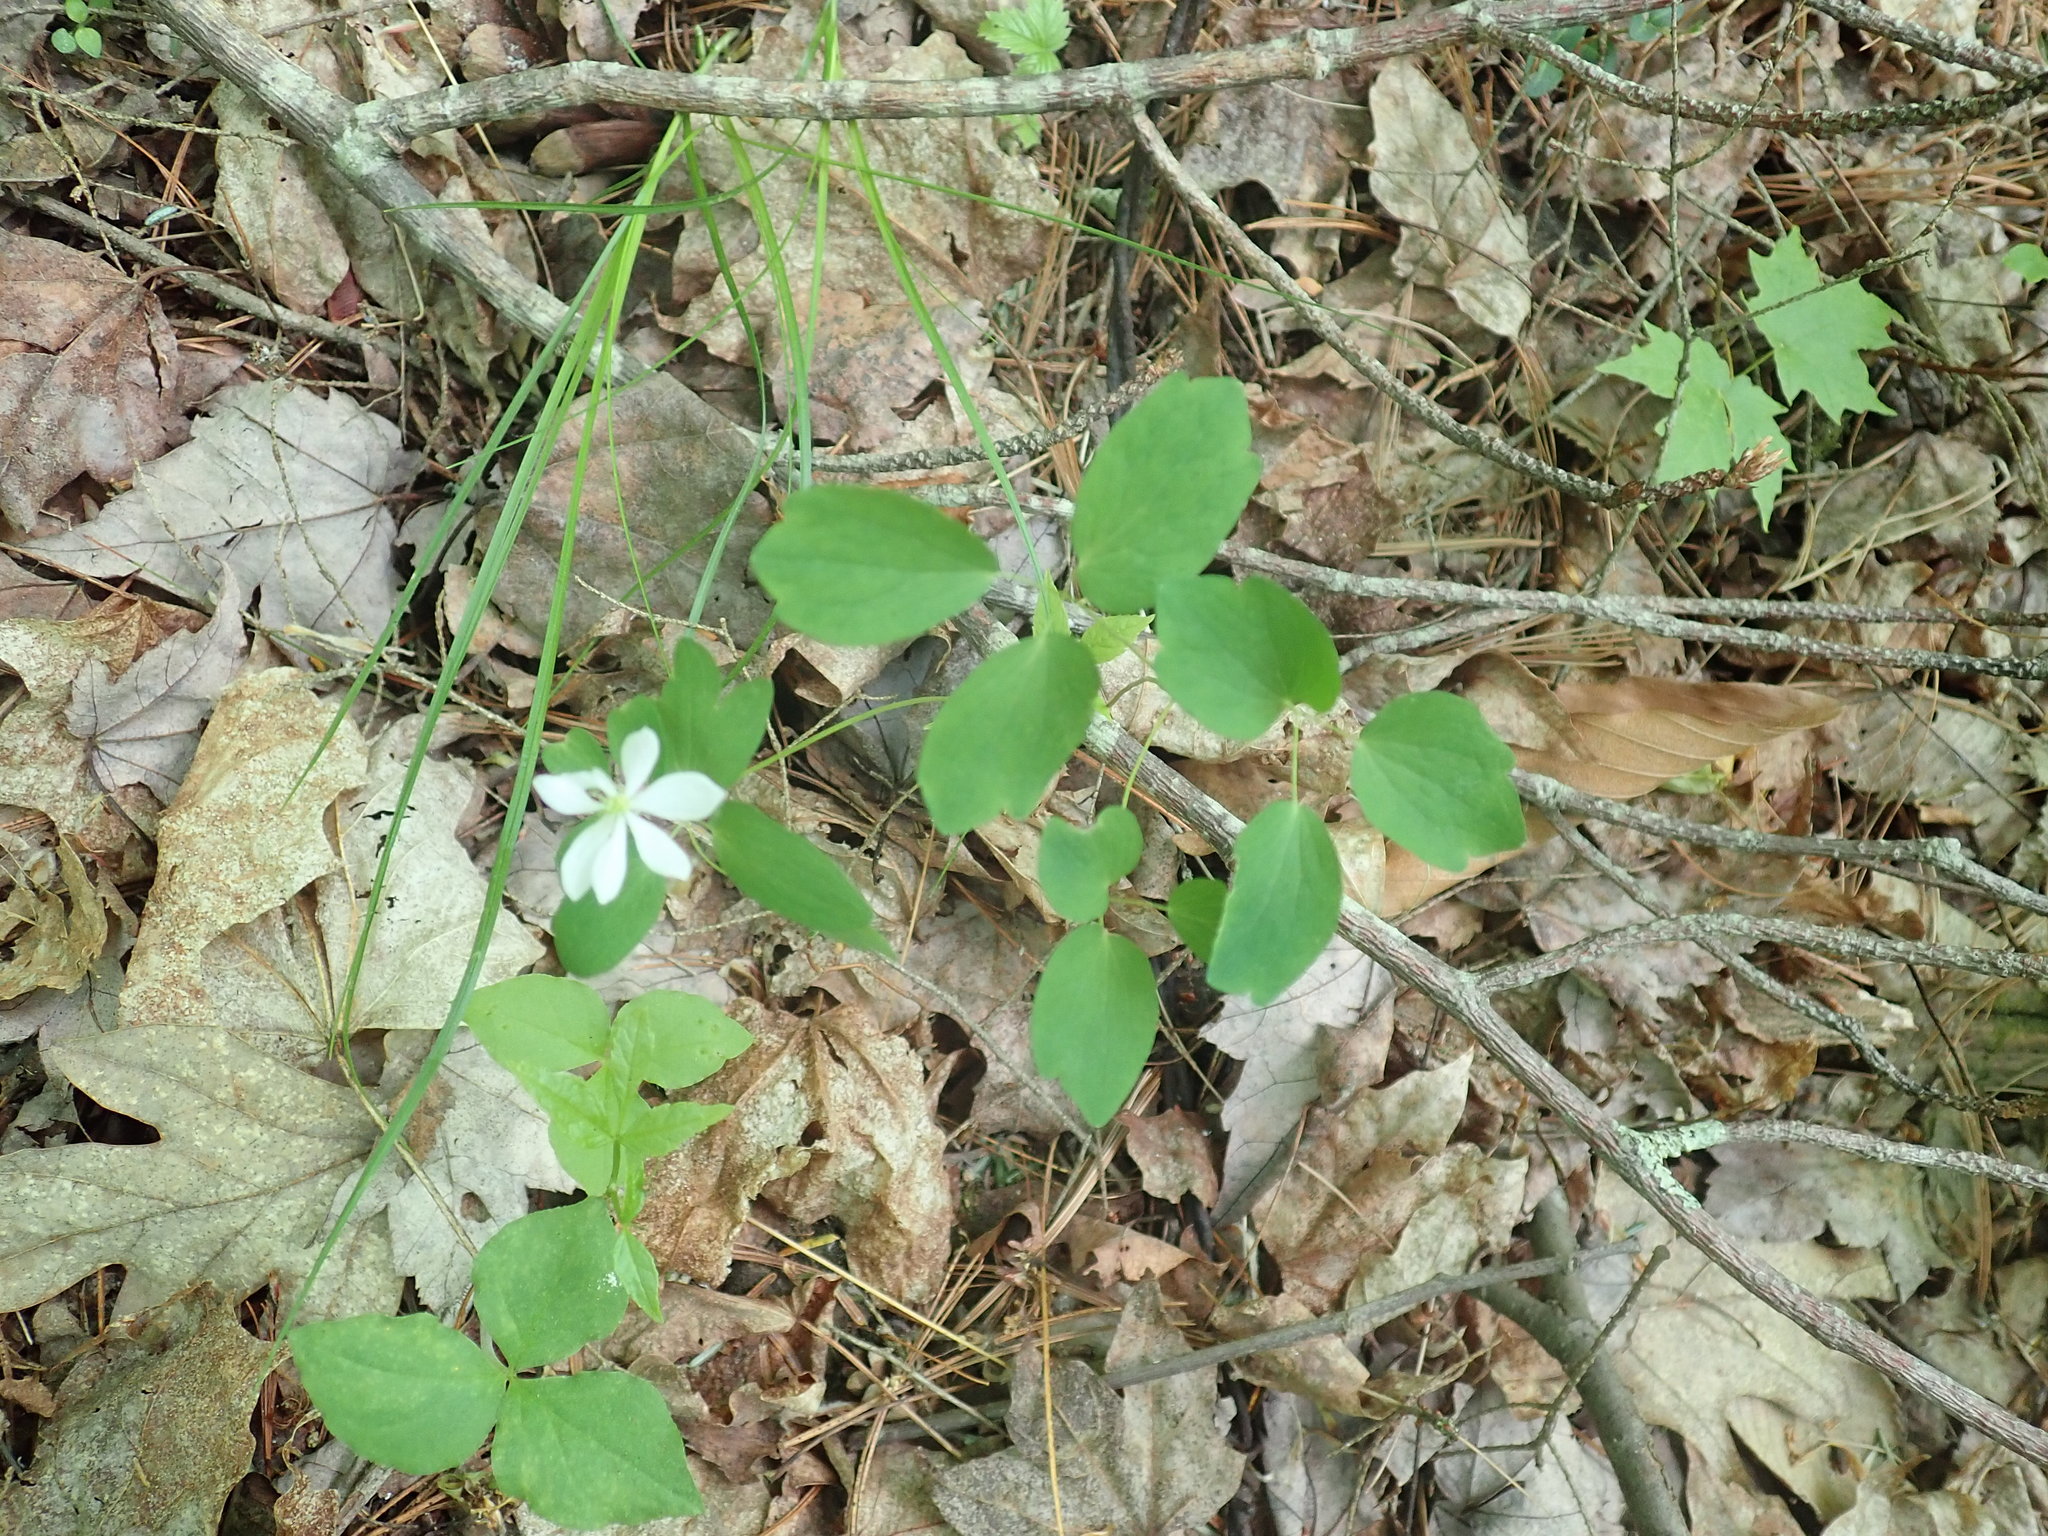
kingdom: Plantae
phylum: Tracheophyta
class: Magnoliopsida
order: Ranunculales
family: Ranunculaceae
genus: Thalictrum
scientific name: Thalictrum thalictroides
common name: Rue-anemone
